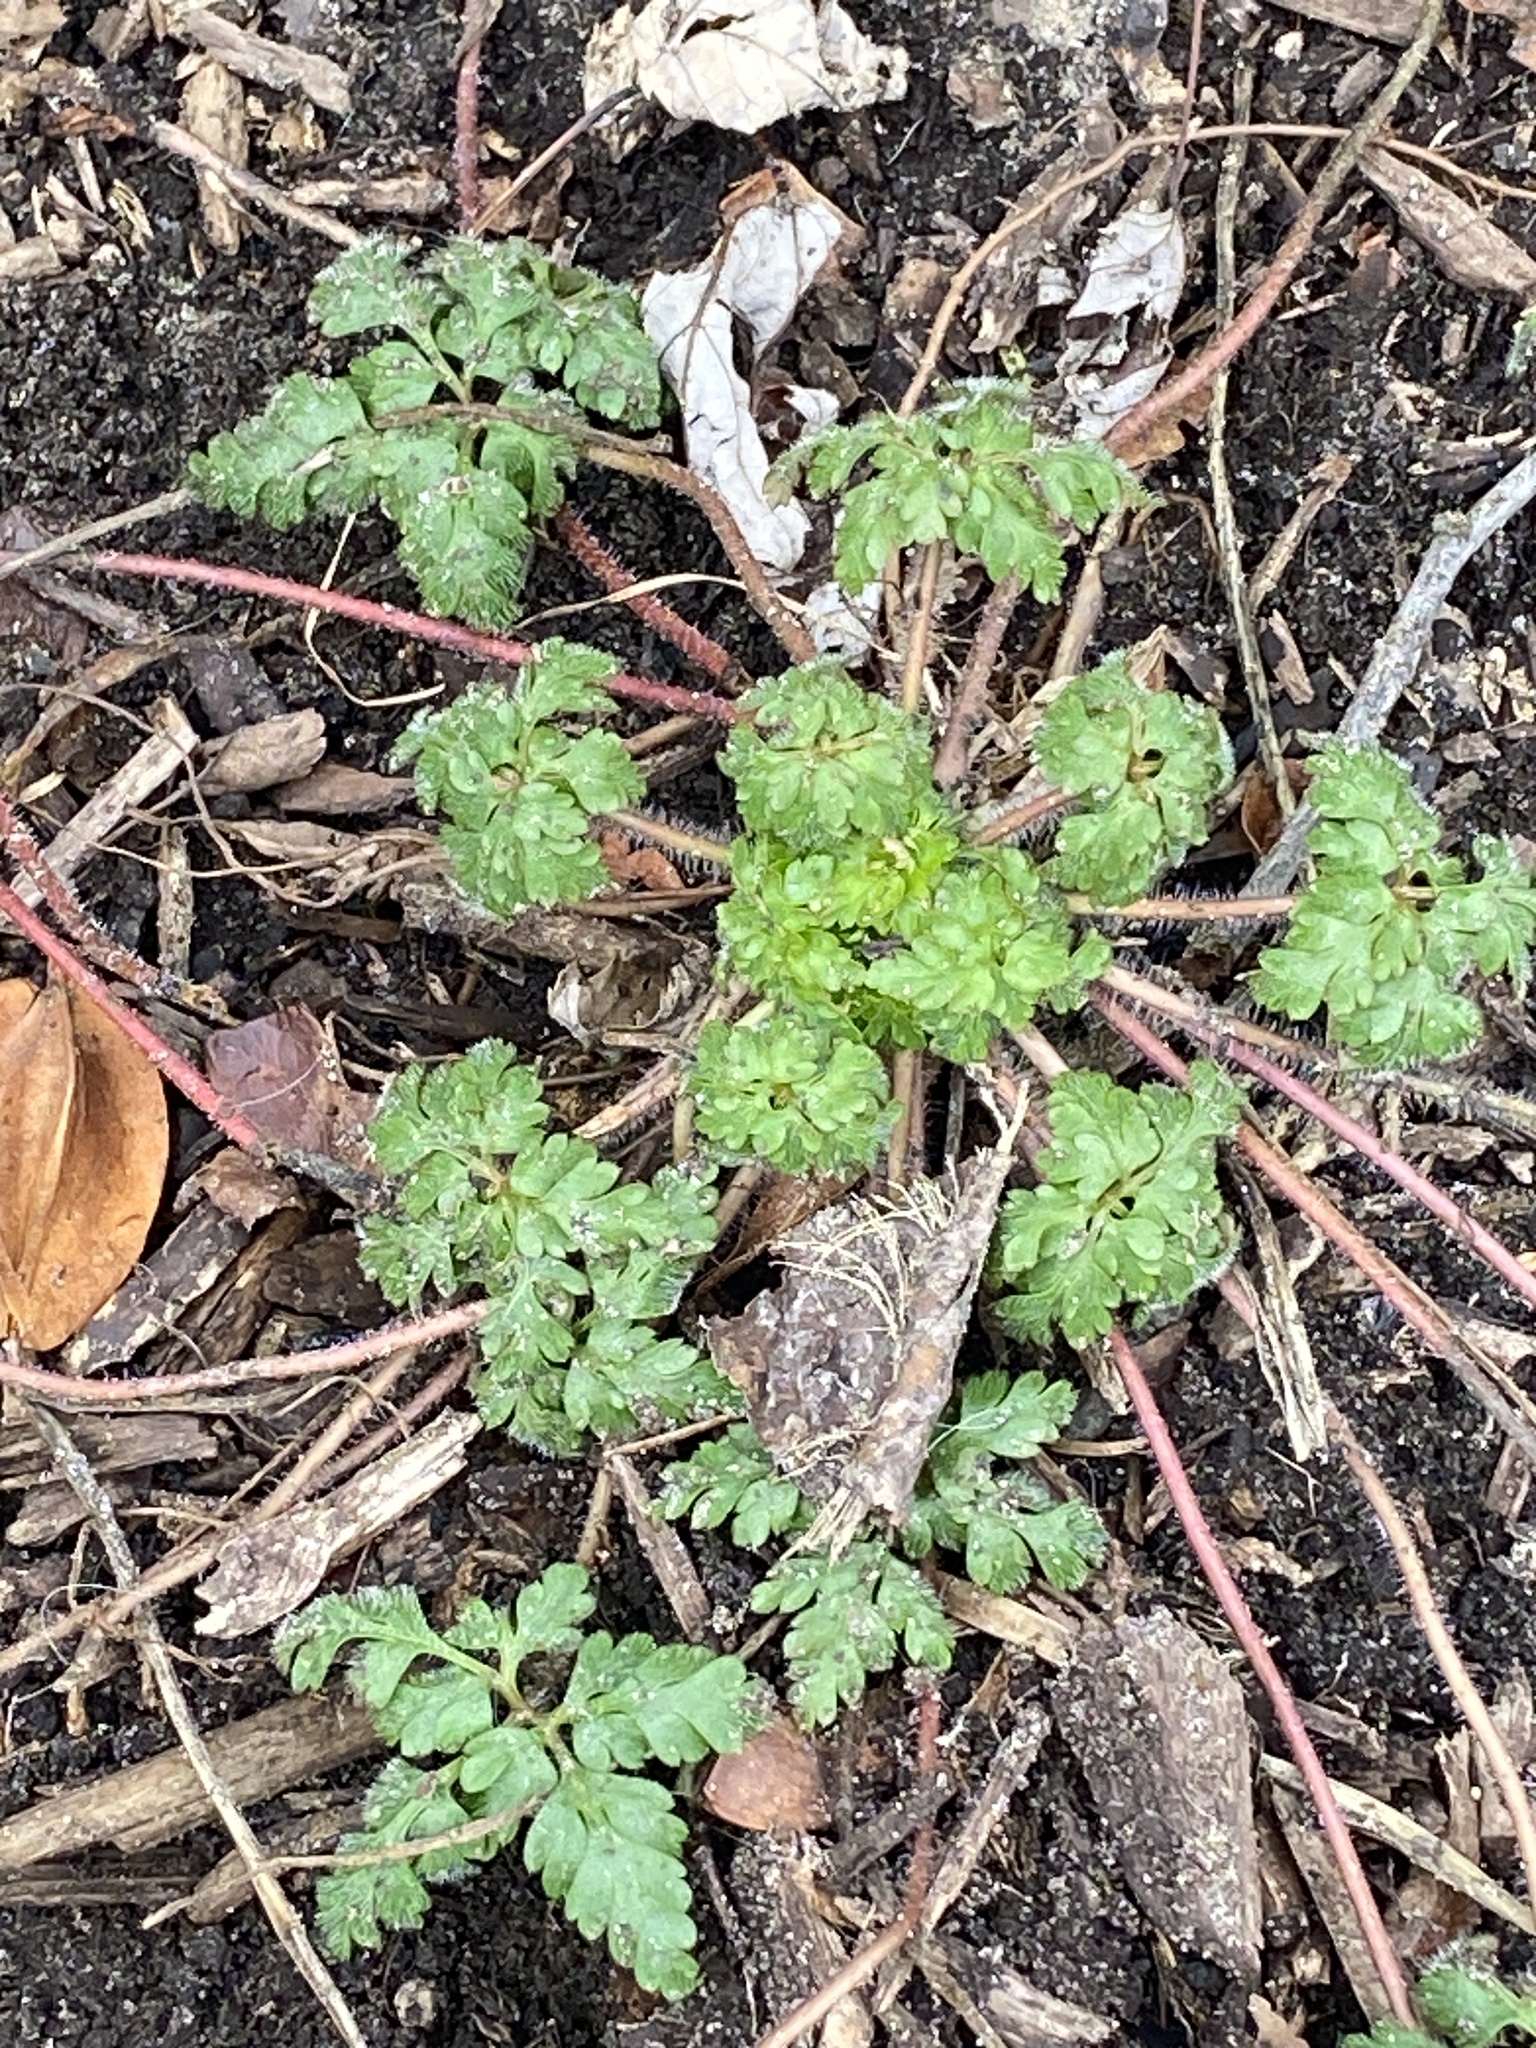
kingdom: Plantae
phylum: Tracheophyta
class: Magnoliopsida
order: Geraniales
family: Geraniaceae
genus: Geranium
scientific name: Geranium robertianum
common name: Herb-robert
